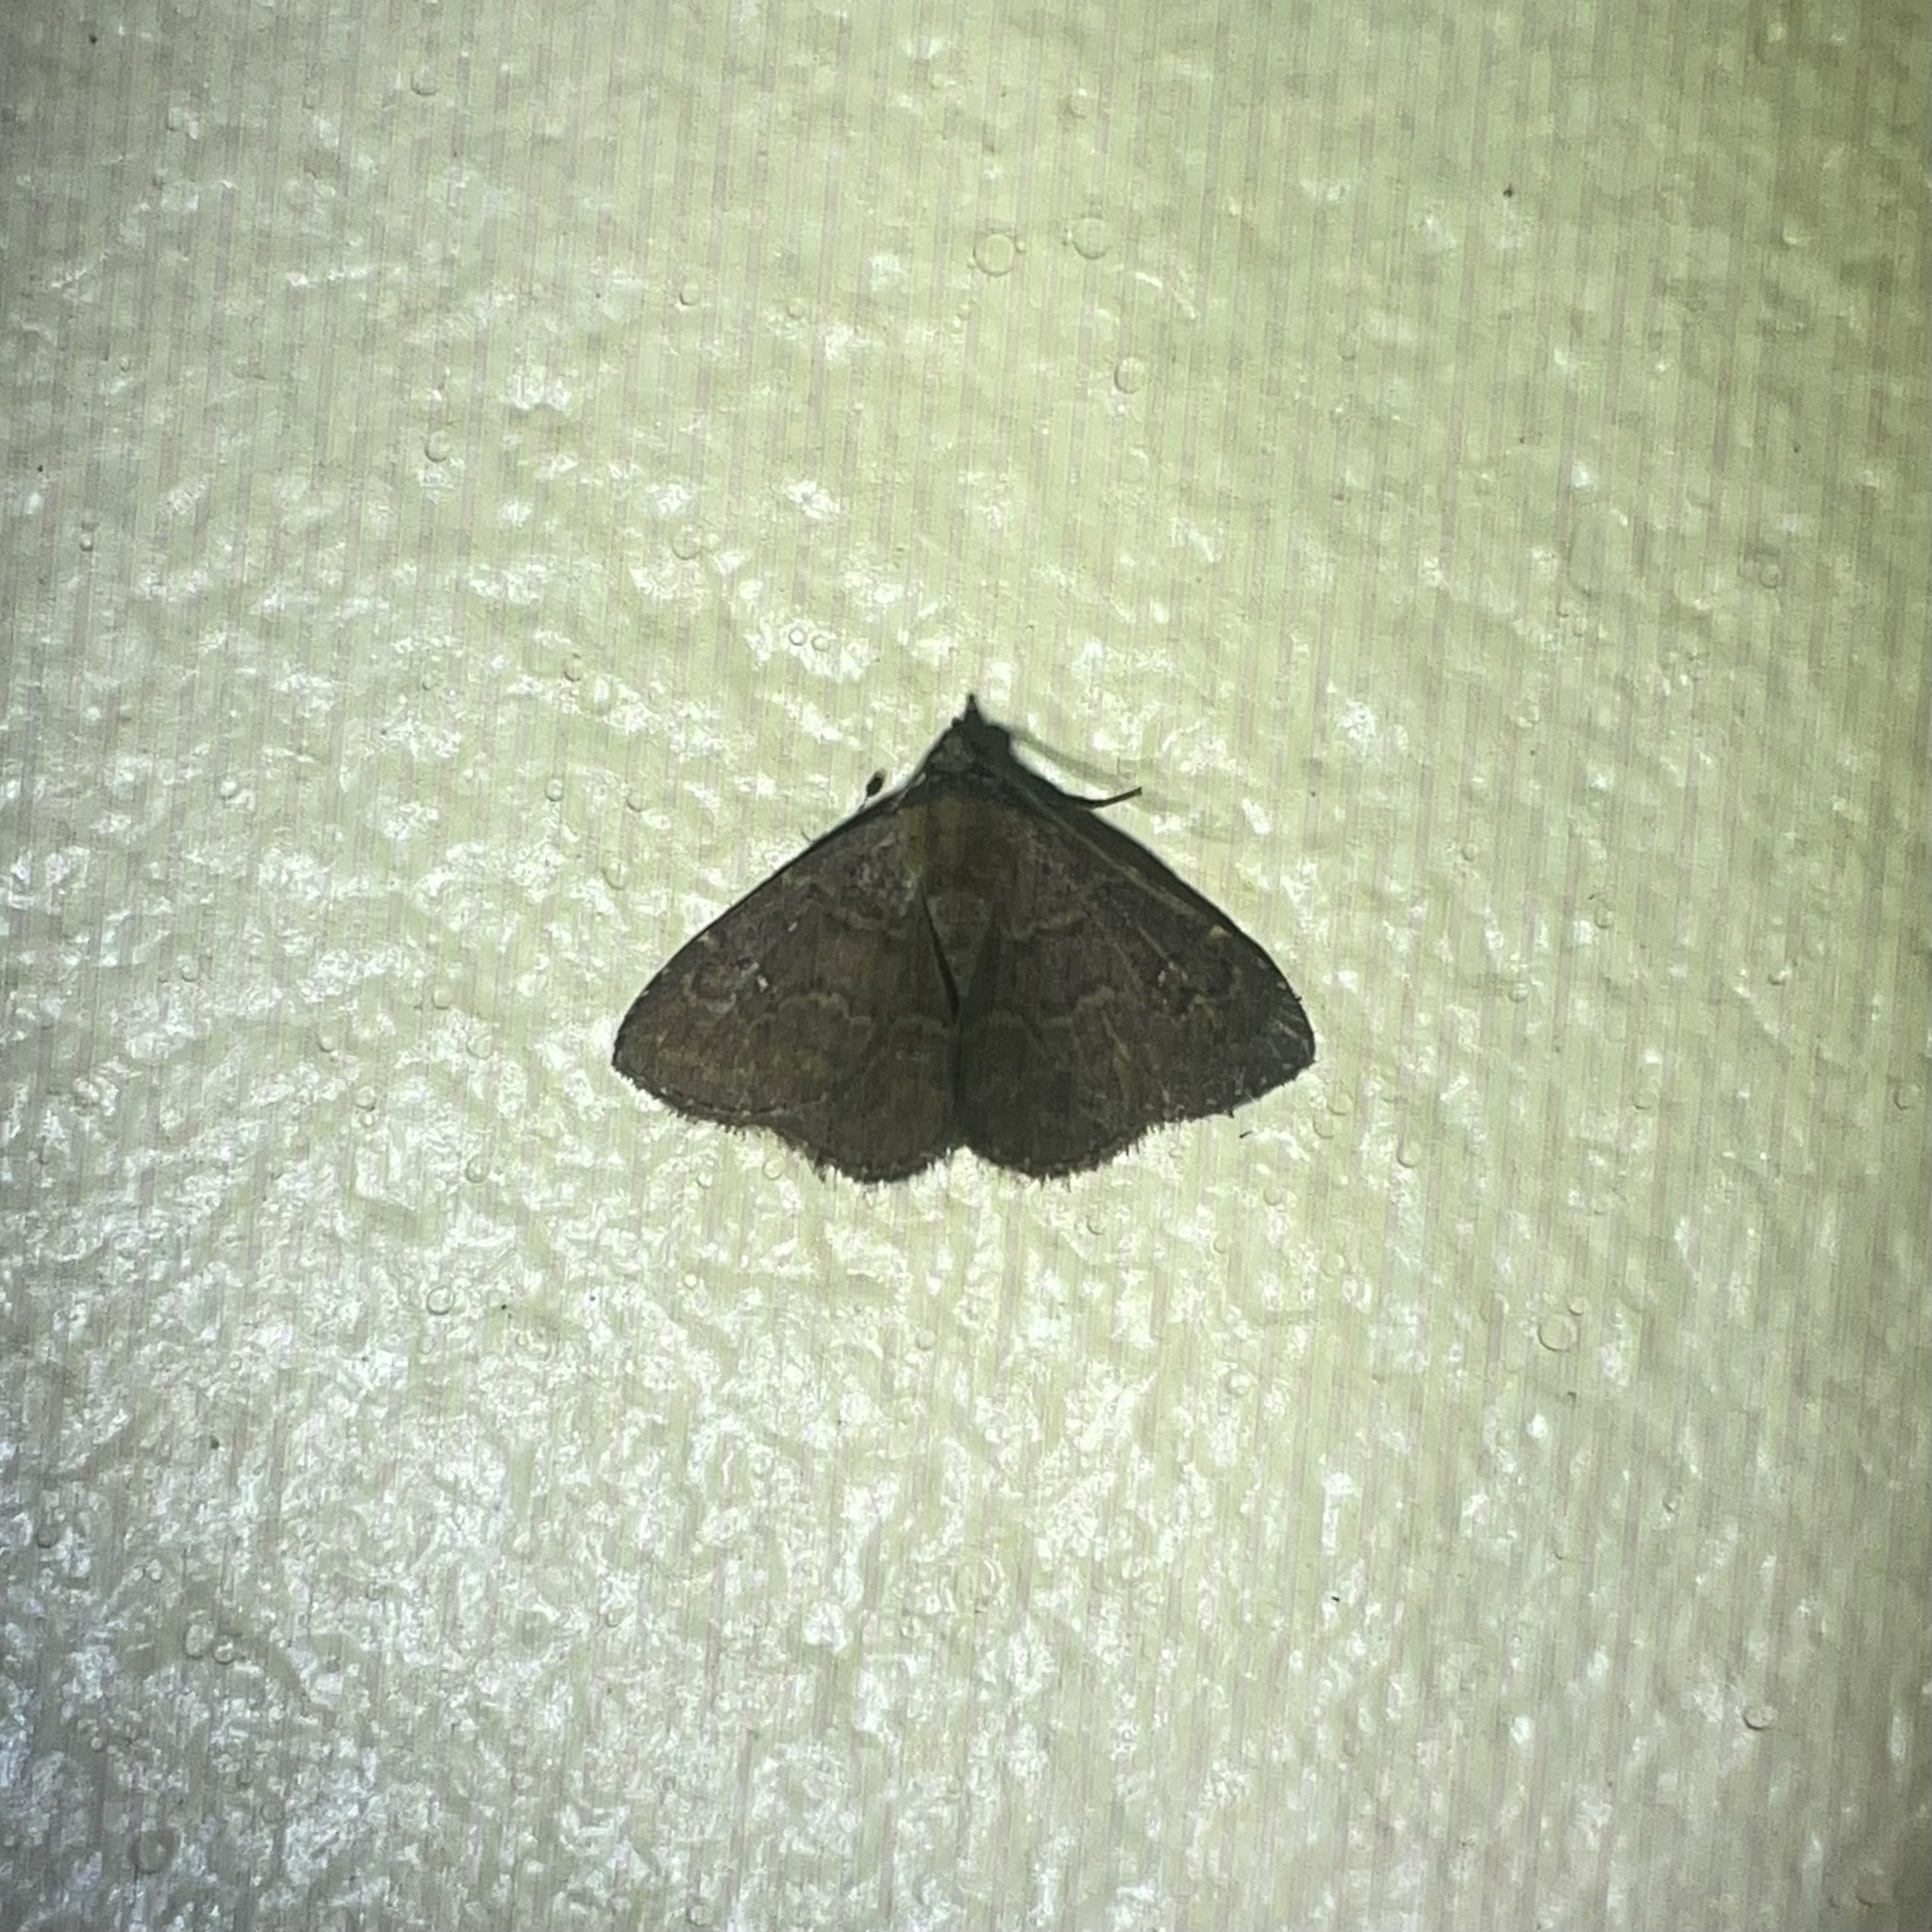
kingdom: Animalia
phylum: Arthropoda
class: Insecta
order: Lepidoptera
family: Erebidae
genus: Ostha
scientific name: Ostha coryphata
